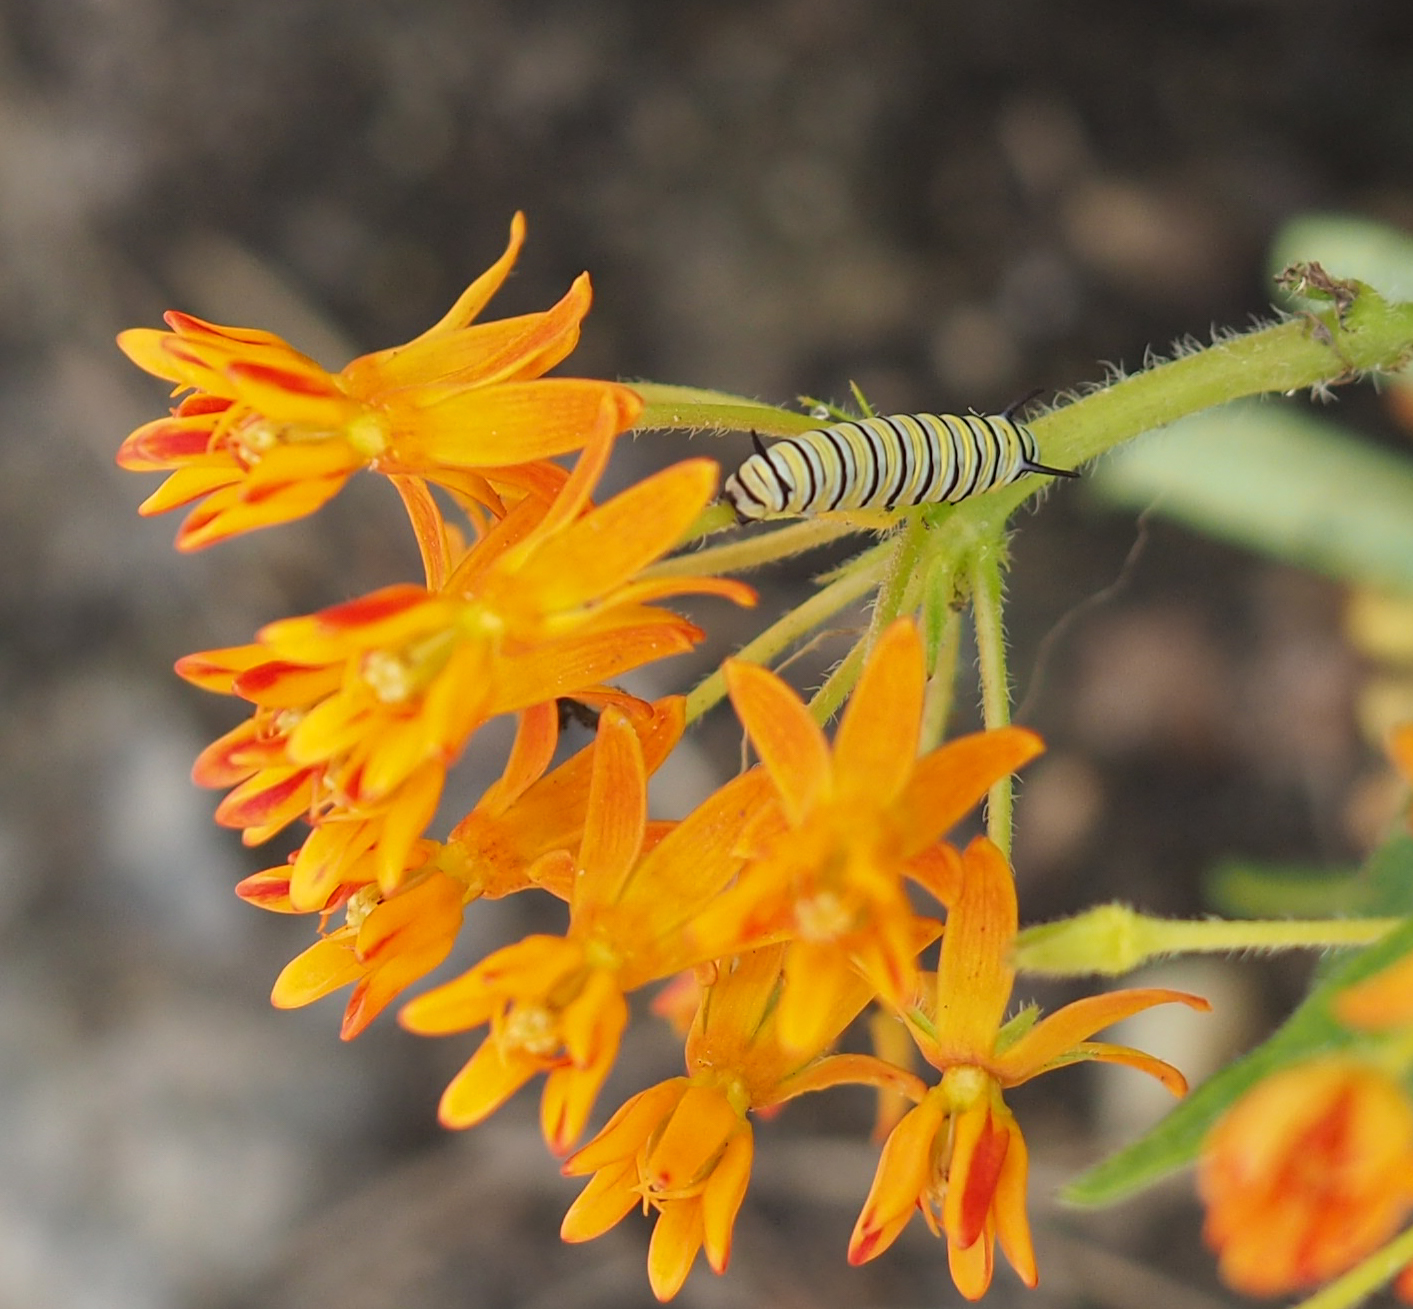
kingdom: Animalia
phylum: Arthropoda
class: Insecta
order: Lepidoptera
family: Nymphalidae
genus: Danaus
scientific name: Danaus plexippus
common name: Monarch
